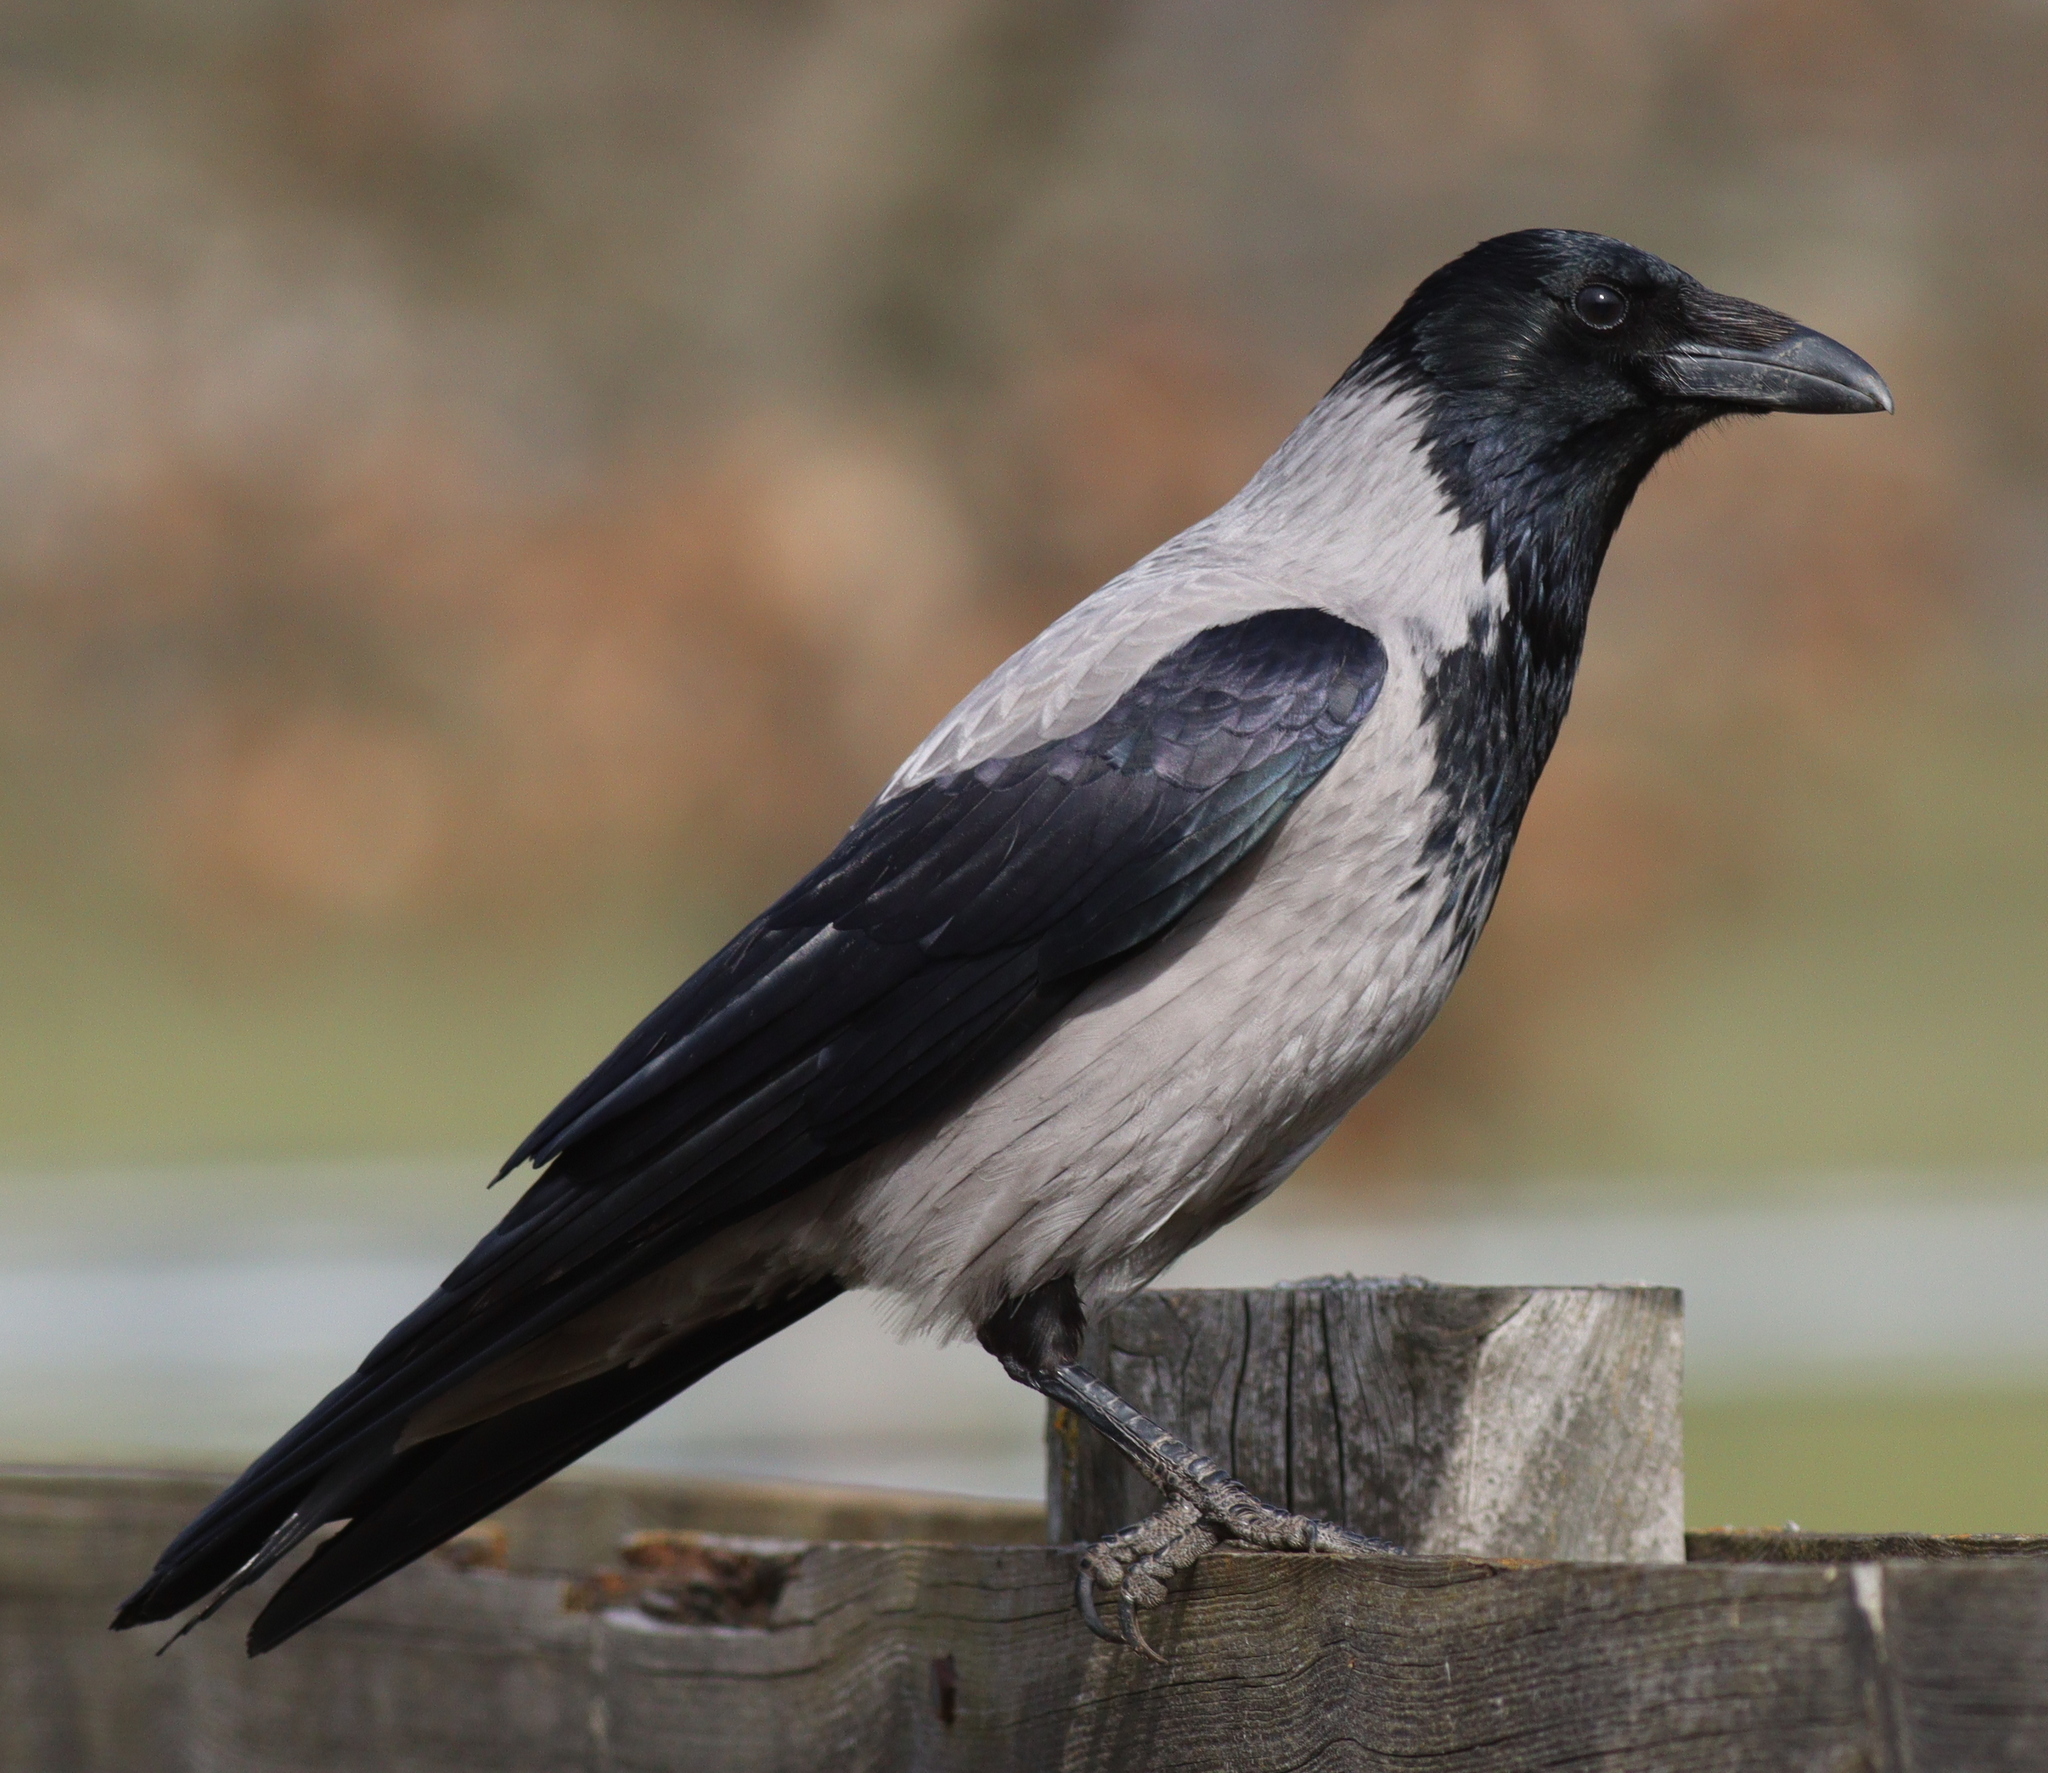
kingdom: Animalia
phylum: Chordata
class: Aves
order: Passeriformes
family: Corvidae
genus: Corvus
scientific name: Corvus cornix
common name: Hooded crow
